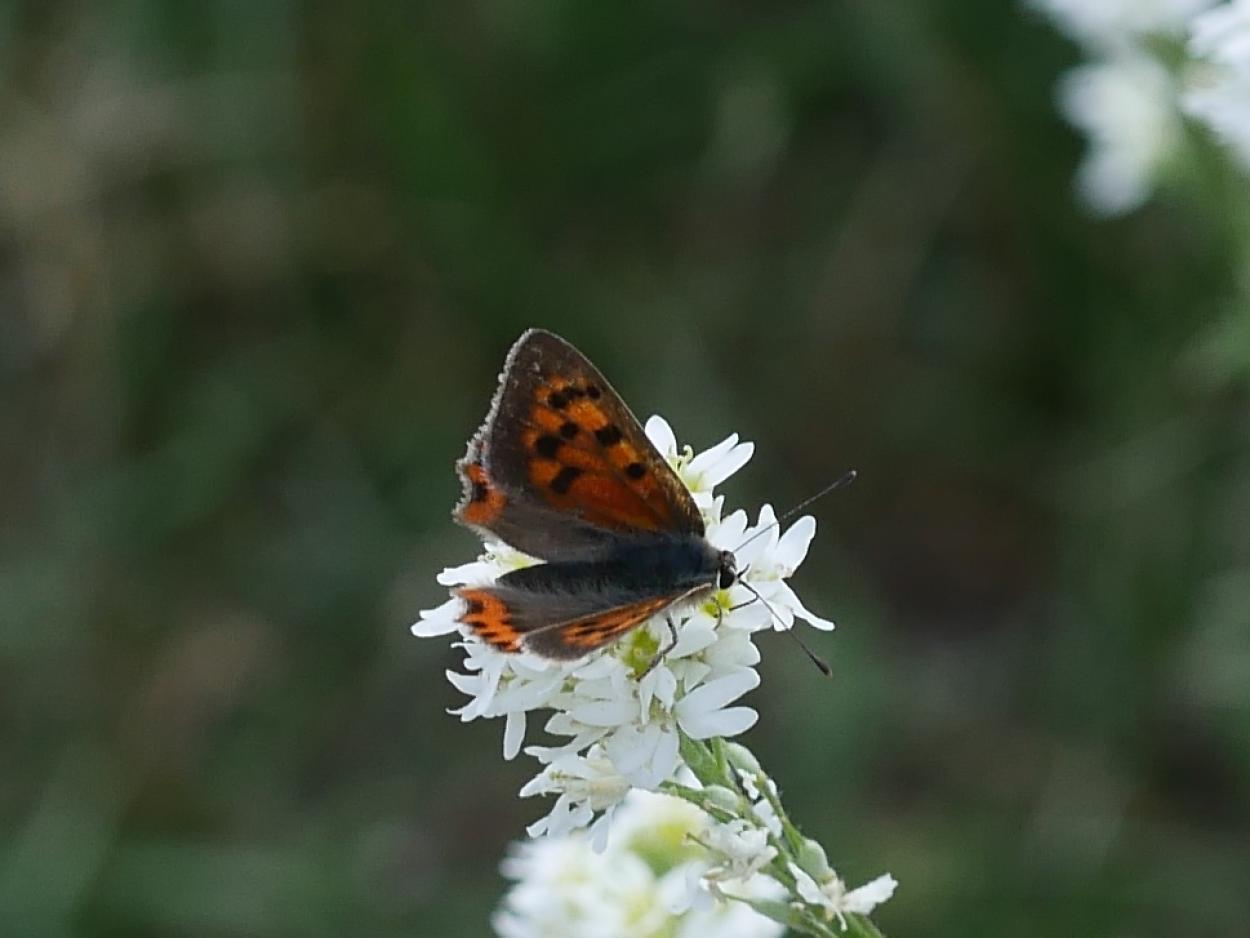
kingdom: Animalia
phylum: Arthropoda
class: Insecta
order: Lepidoptera
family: Lycaenidae
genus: Lycaena
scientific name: Lycaena phlaeas
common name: Small copper
